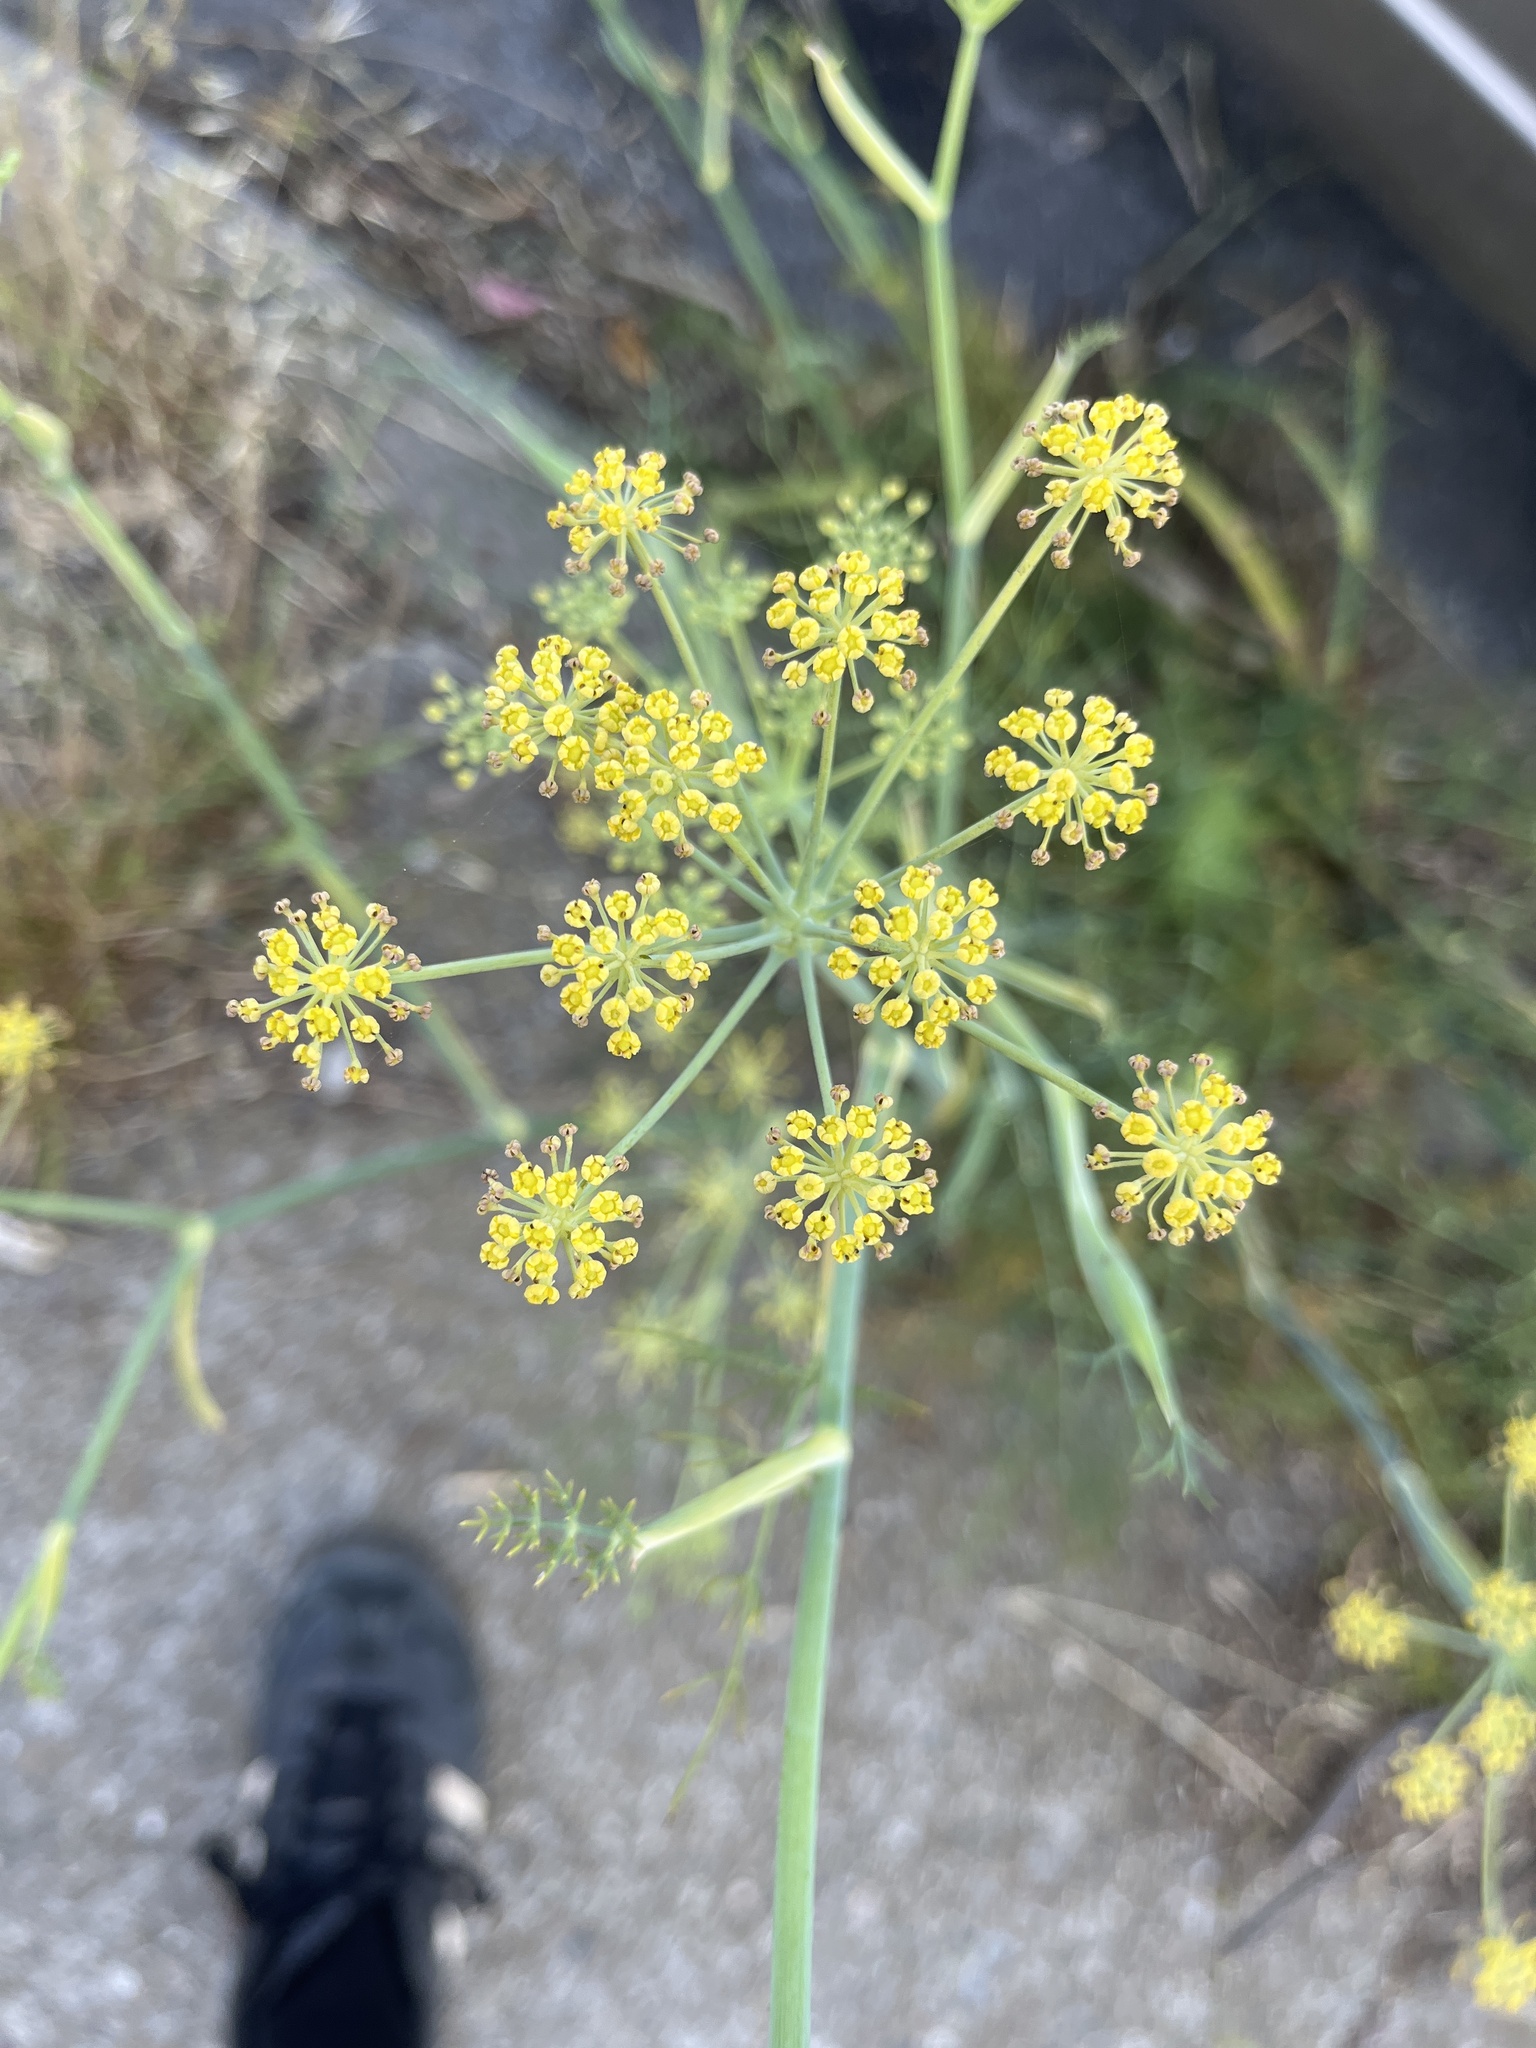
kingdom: Plantae
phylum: Tracheophyta
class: Magnoliopsida
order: Apiales
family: Apiaceae
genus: Foeniculum
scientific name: Foeniculum vulgare
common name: Fennel
